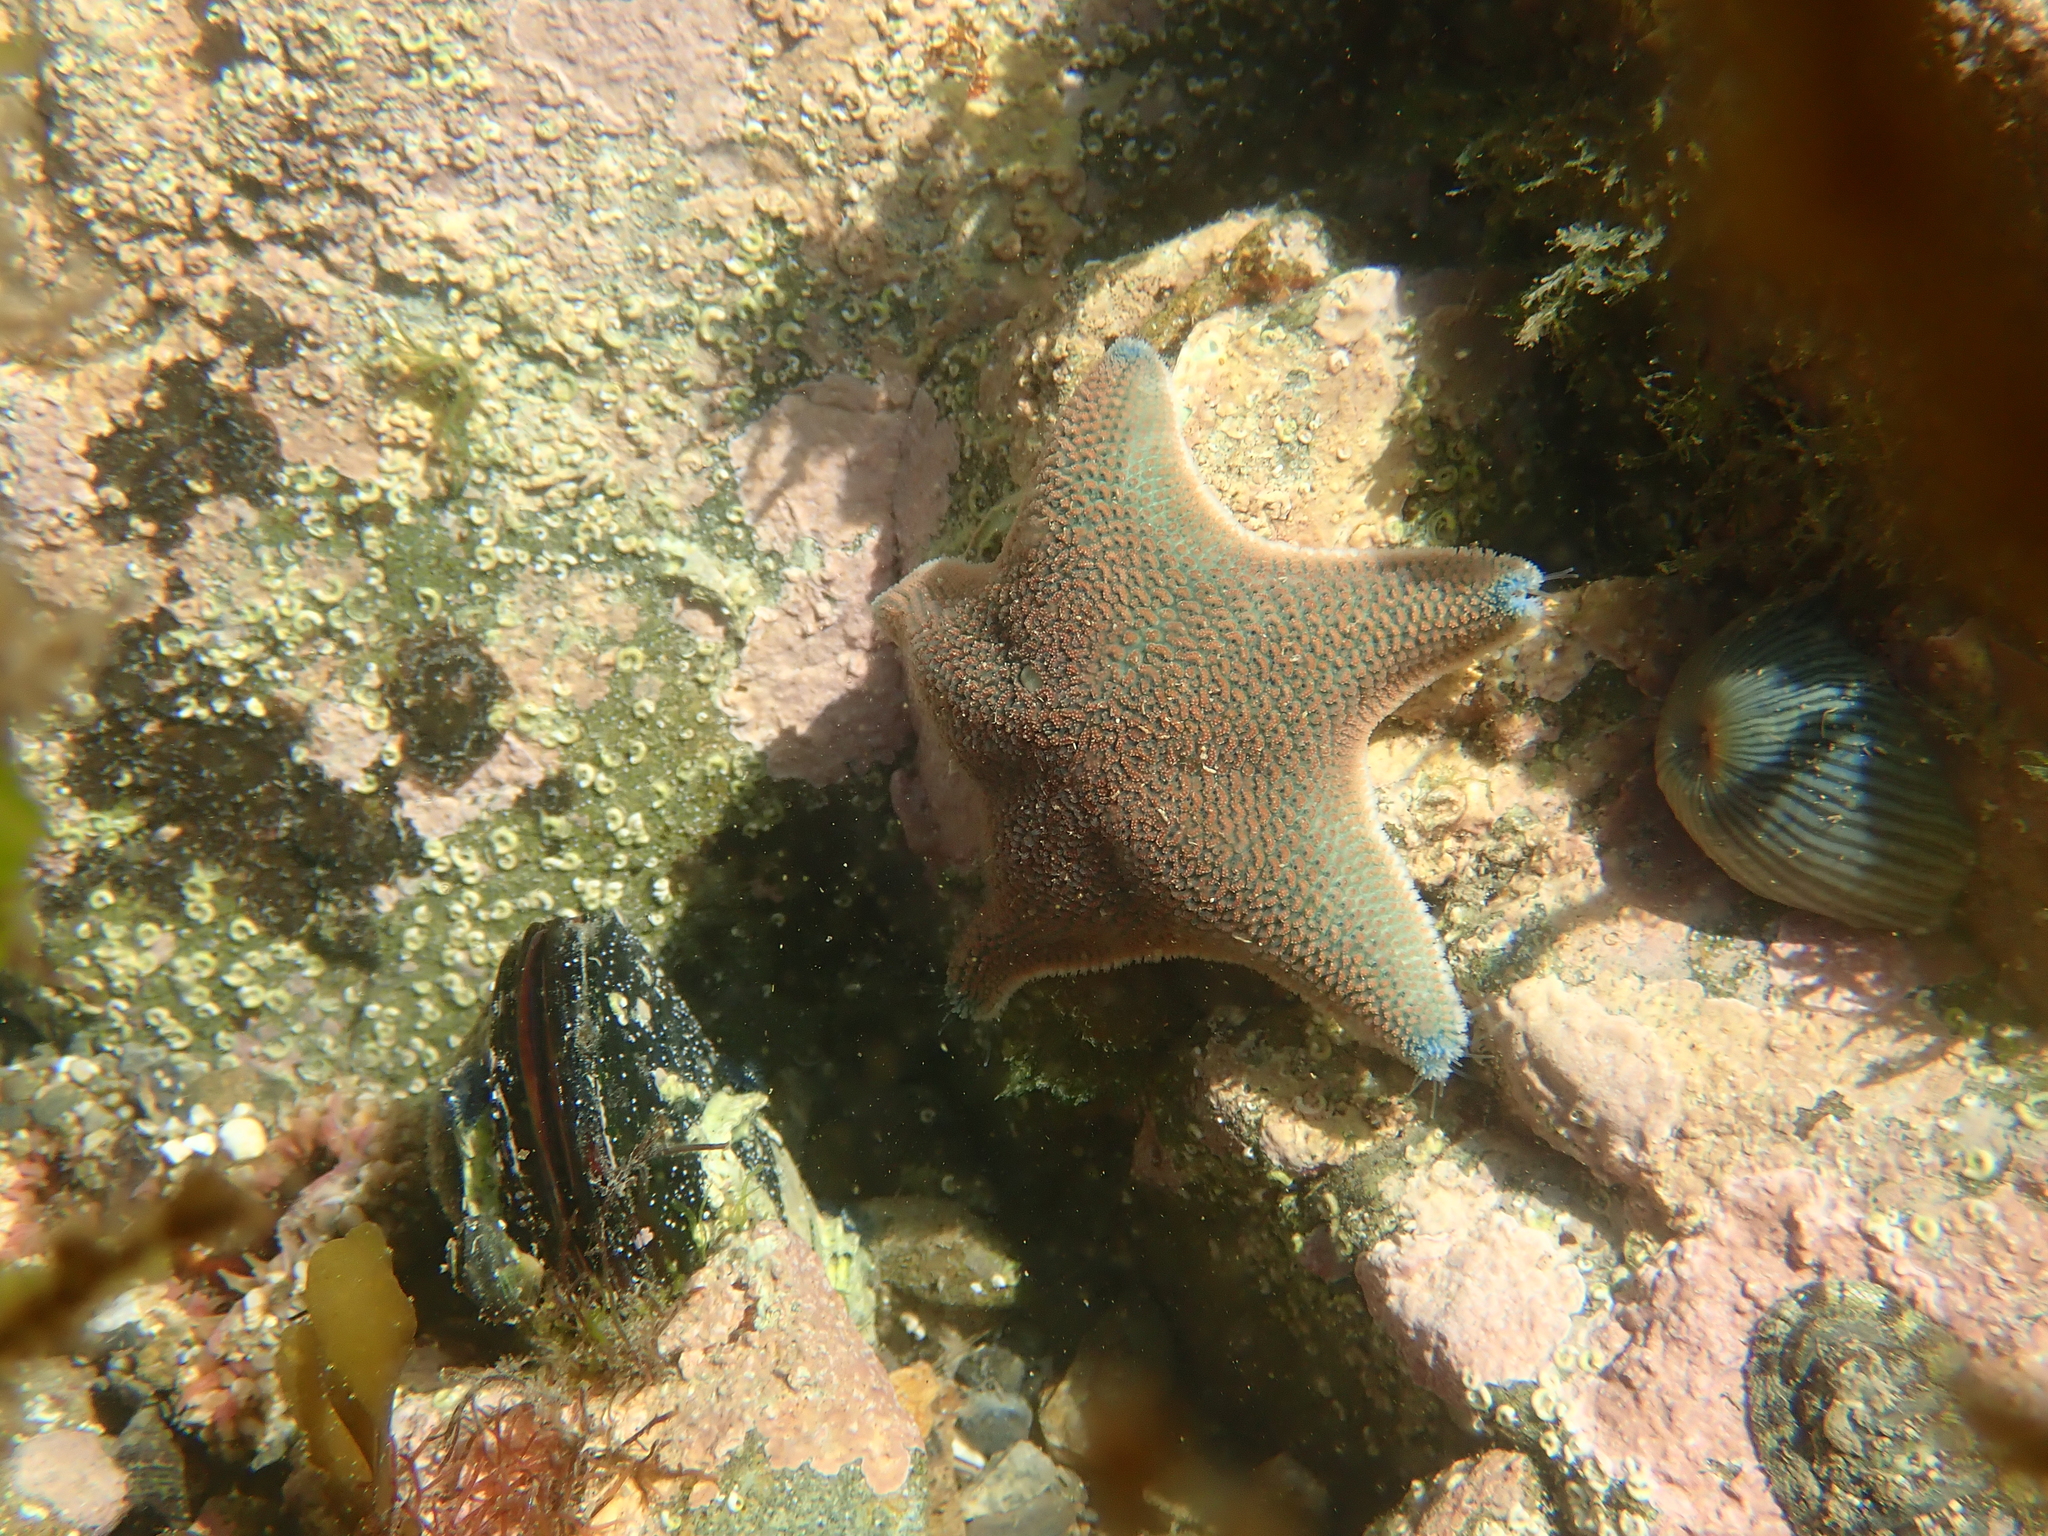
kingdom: Animalia
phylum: Echinodermata
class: Asteroidea
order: Valvatida
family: Asterinidae
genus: Patiriella
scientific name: Patiriella regularis
